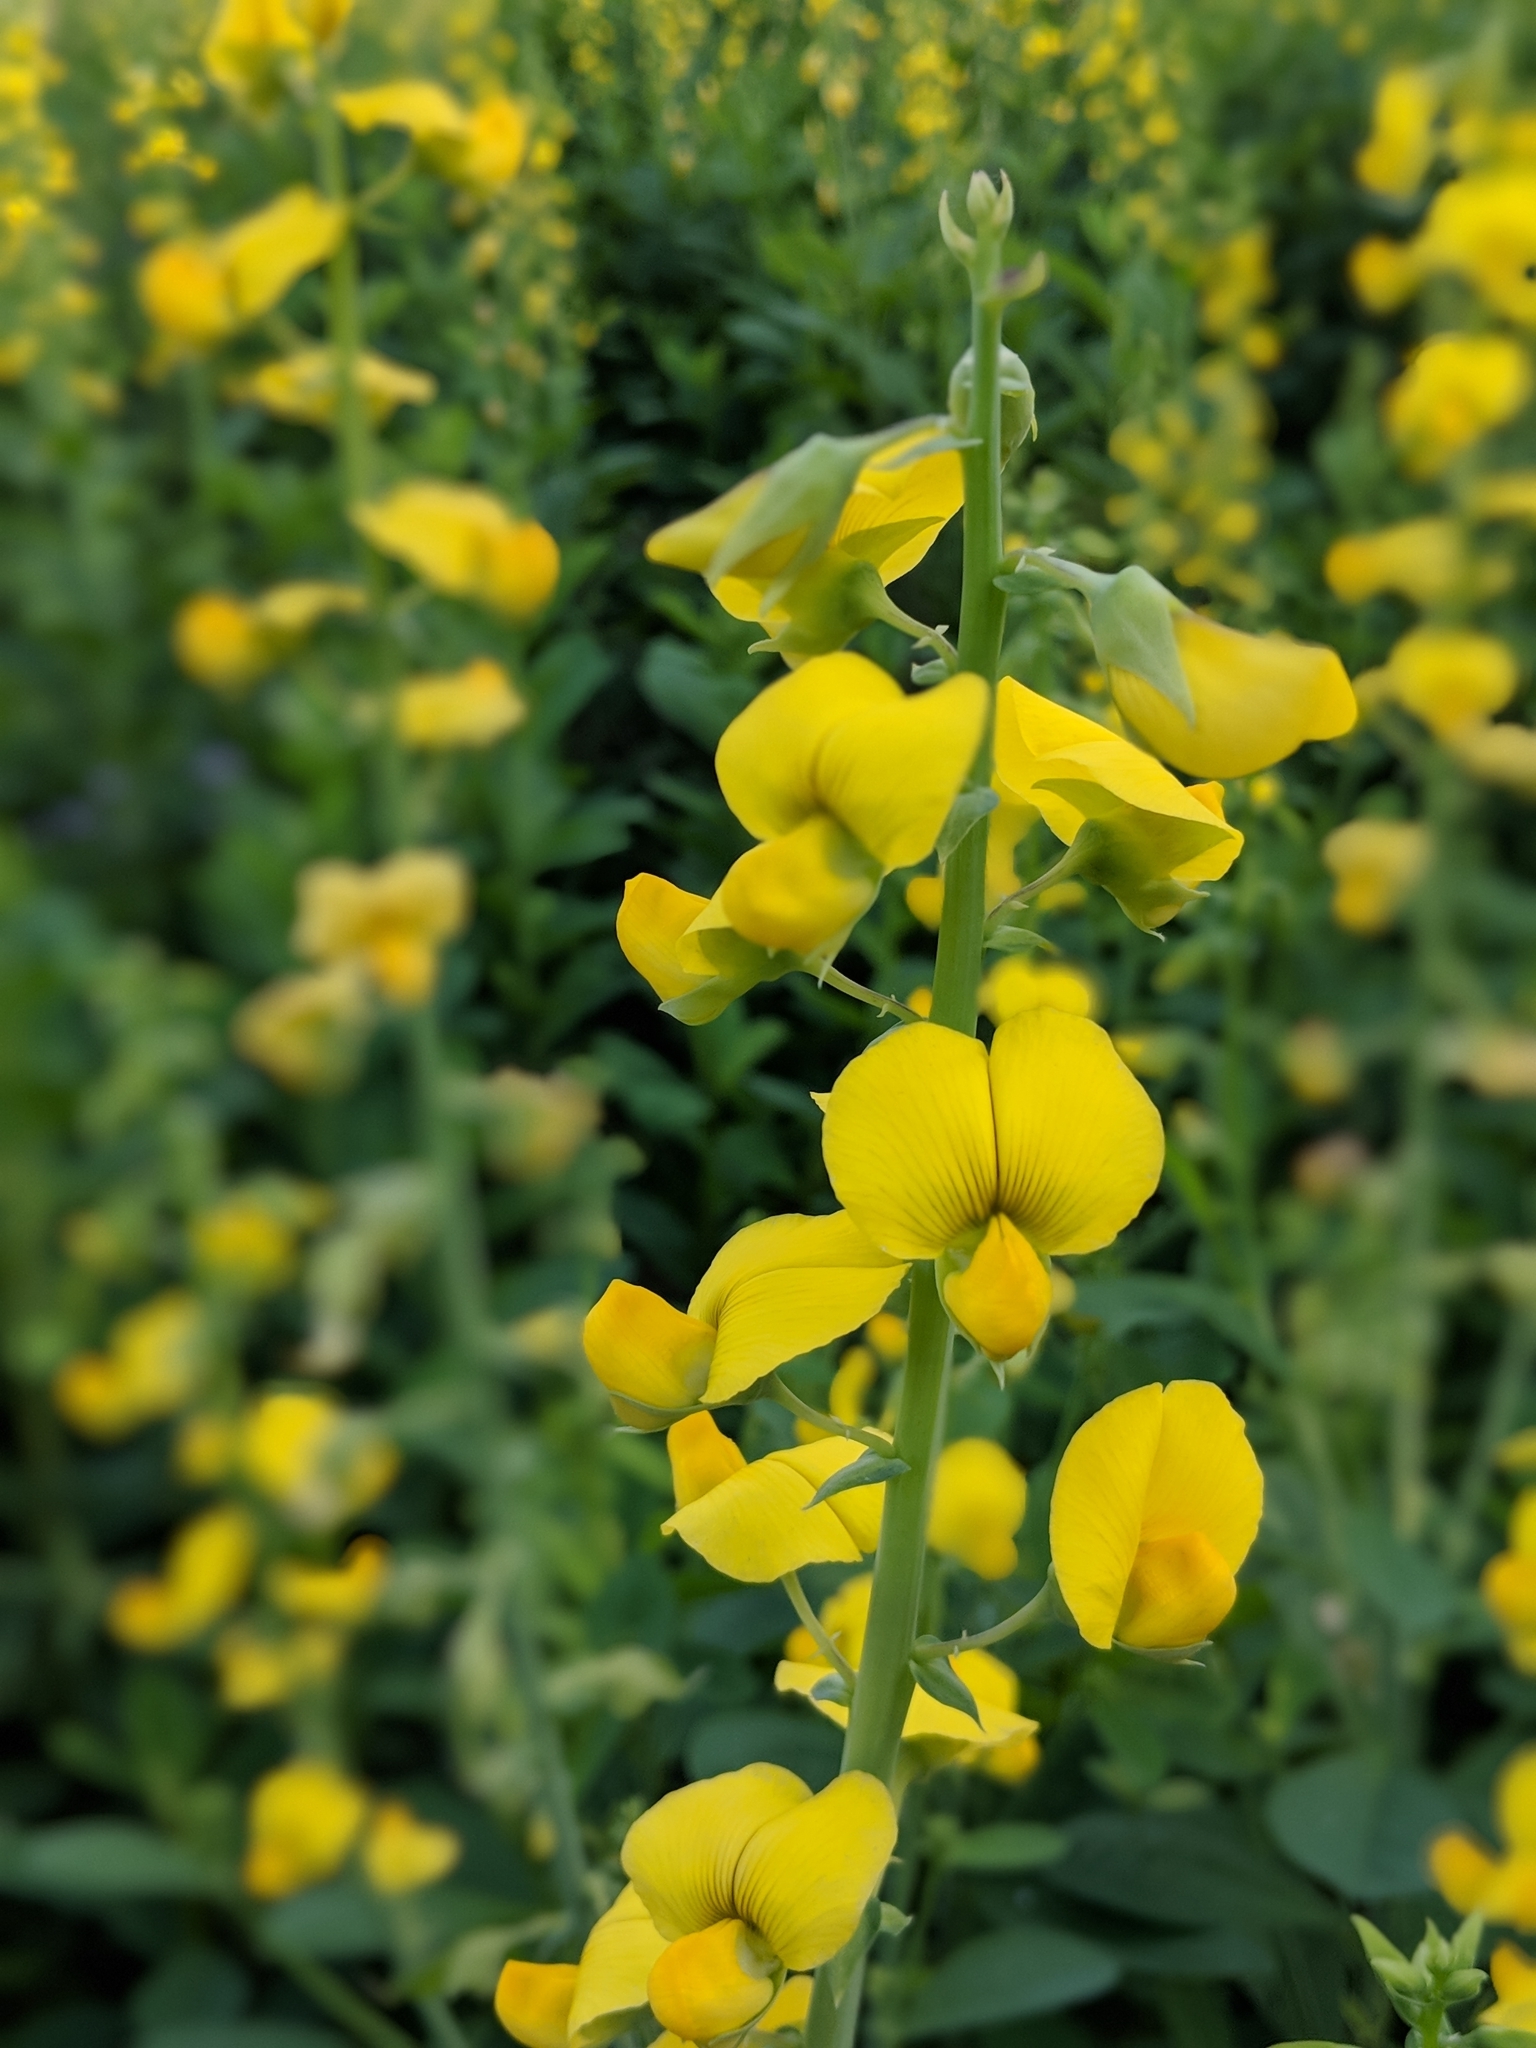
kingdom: Plantae
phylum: Tracheophyta
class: Magnoliopsida
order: Fabales
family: Fabaceae
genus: Crotalaria
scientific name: Crotalaria spectabilis
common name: Showy rattlebox
